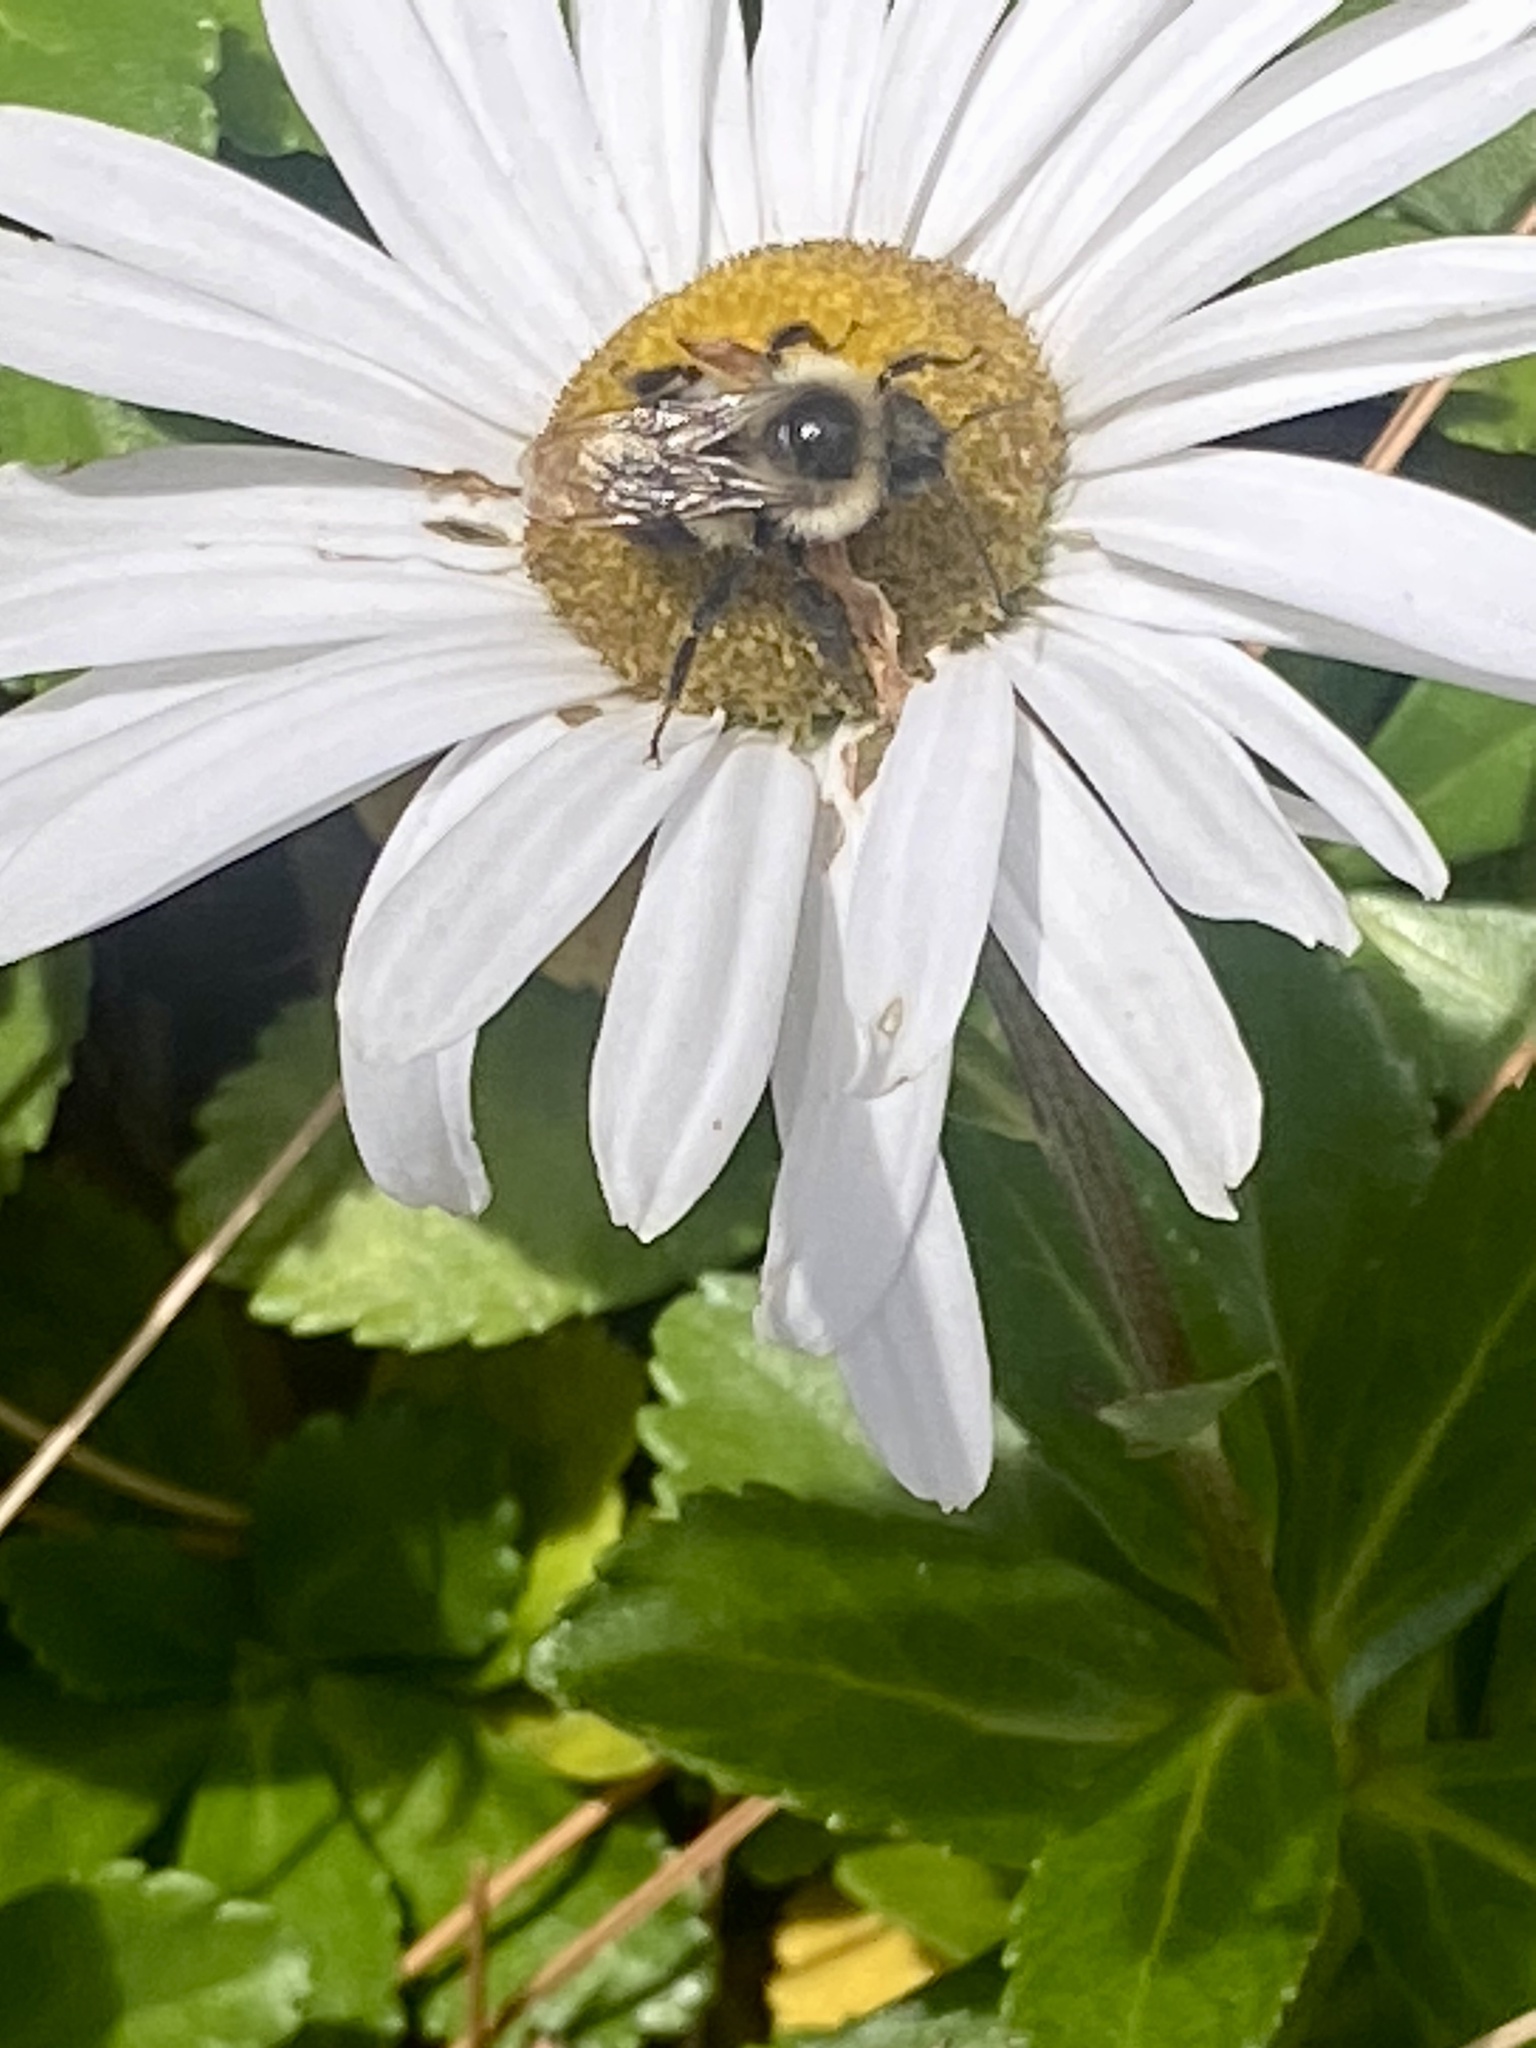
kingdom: Animalia
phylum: Arthropoda
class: Insecta
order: Hymenoptera
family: Apidae
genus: Bombus
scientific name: Bombus impatiens
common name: Common eastern bumble bee
